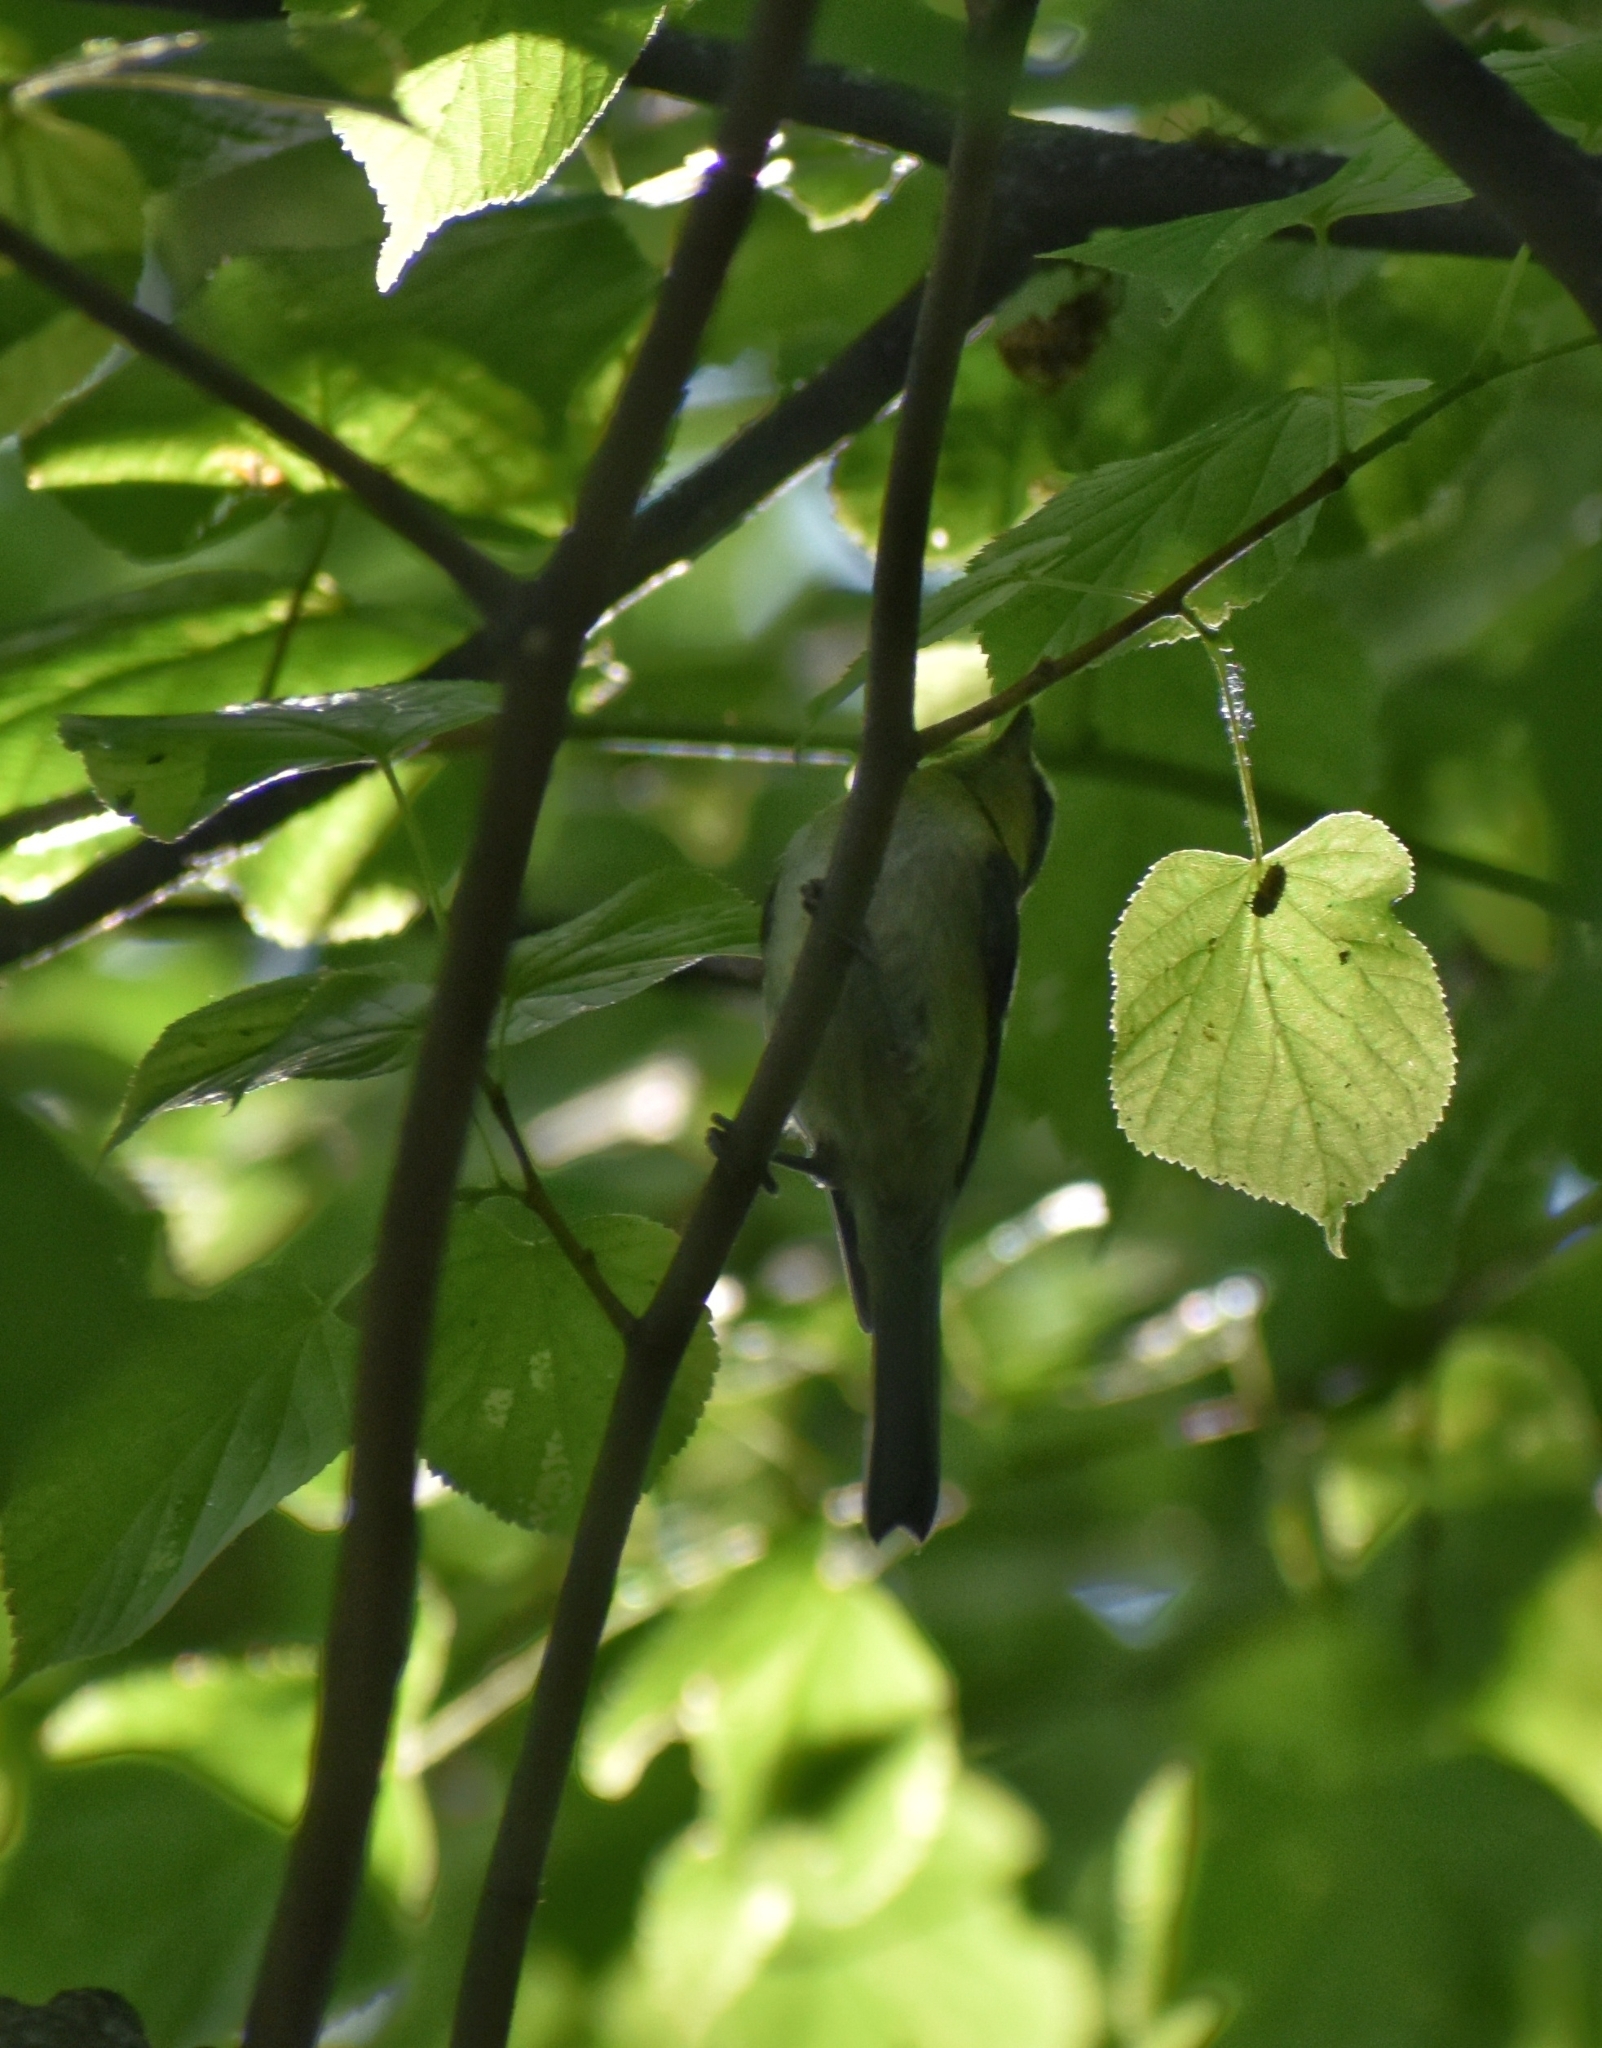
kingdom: Animalia
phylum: Chordata
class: Aves
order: Passeriformes
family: Paridae
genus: Cyanistes
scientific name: Cyanistes caeruleus
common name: Eurasian blue tit
